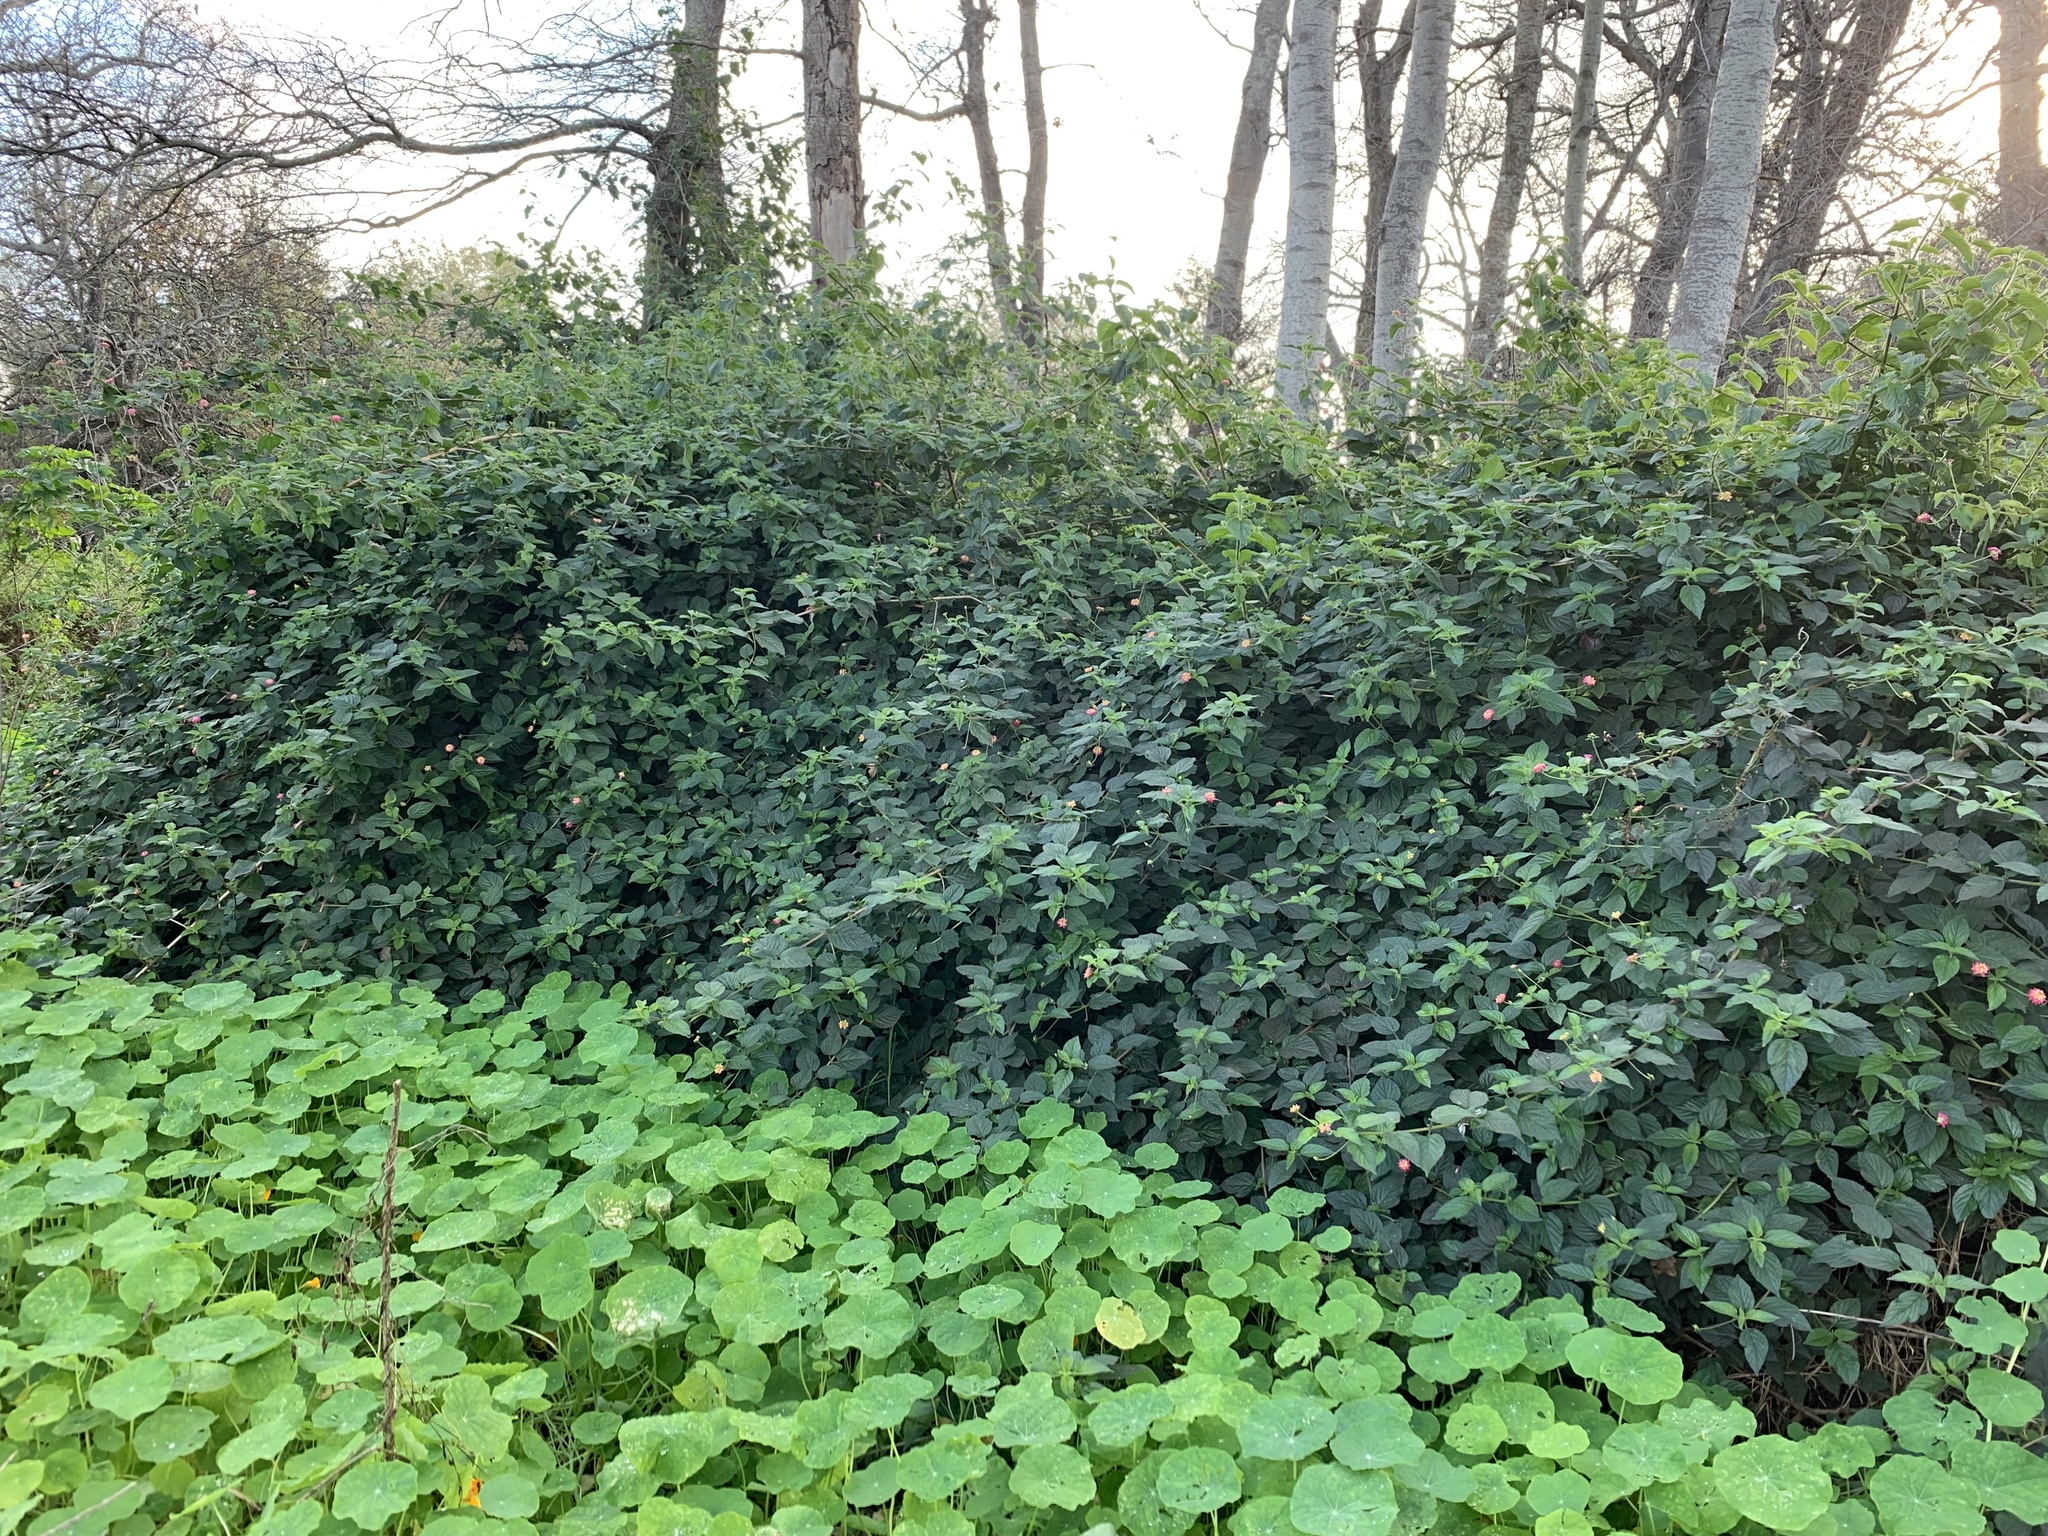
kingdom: Plantae
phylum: Tracheophyta
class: Magnoliopsida
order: Lamiales
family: Verbenaceae
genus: Lantana
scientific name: Lantana camara
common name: Lantana
